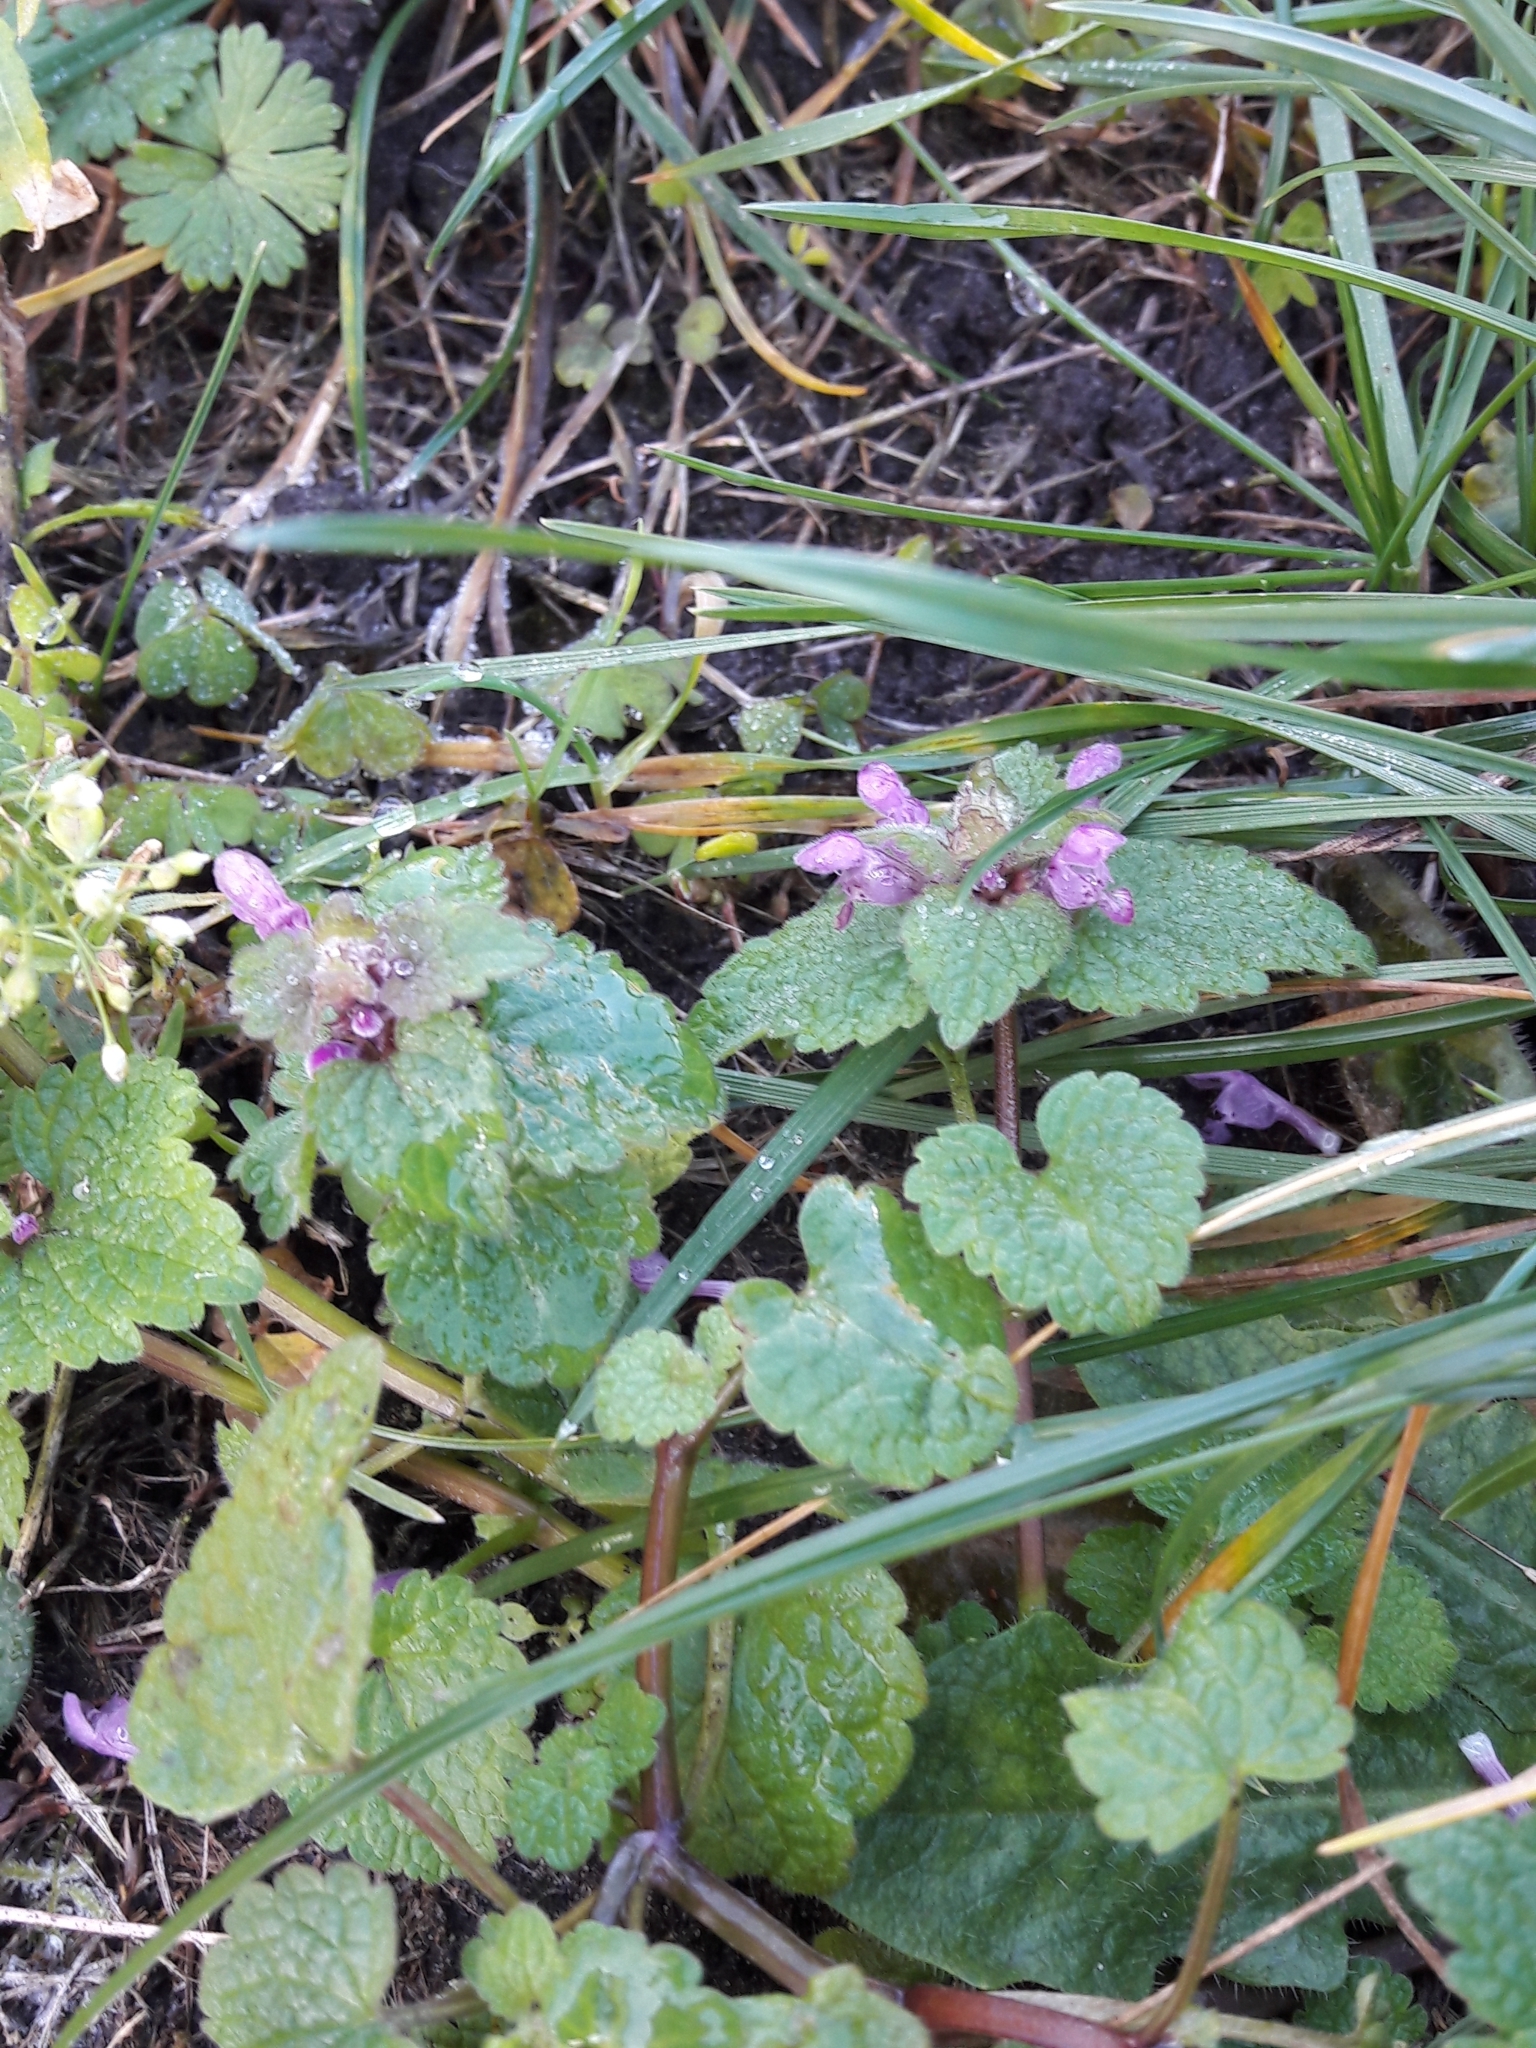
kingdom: Plantae
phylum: Tracheophyta
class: Magnoliopsida
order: Lamiales
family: Lamiaceae
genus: Lamium
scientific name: Lamium purpureum
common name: Red dead-nettle
